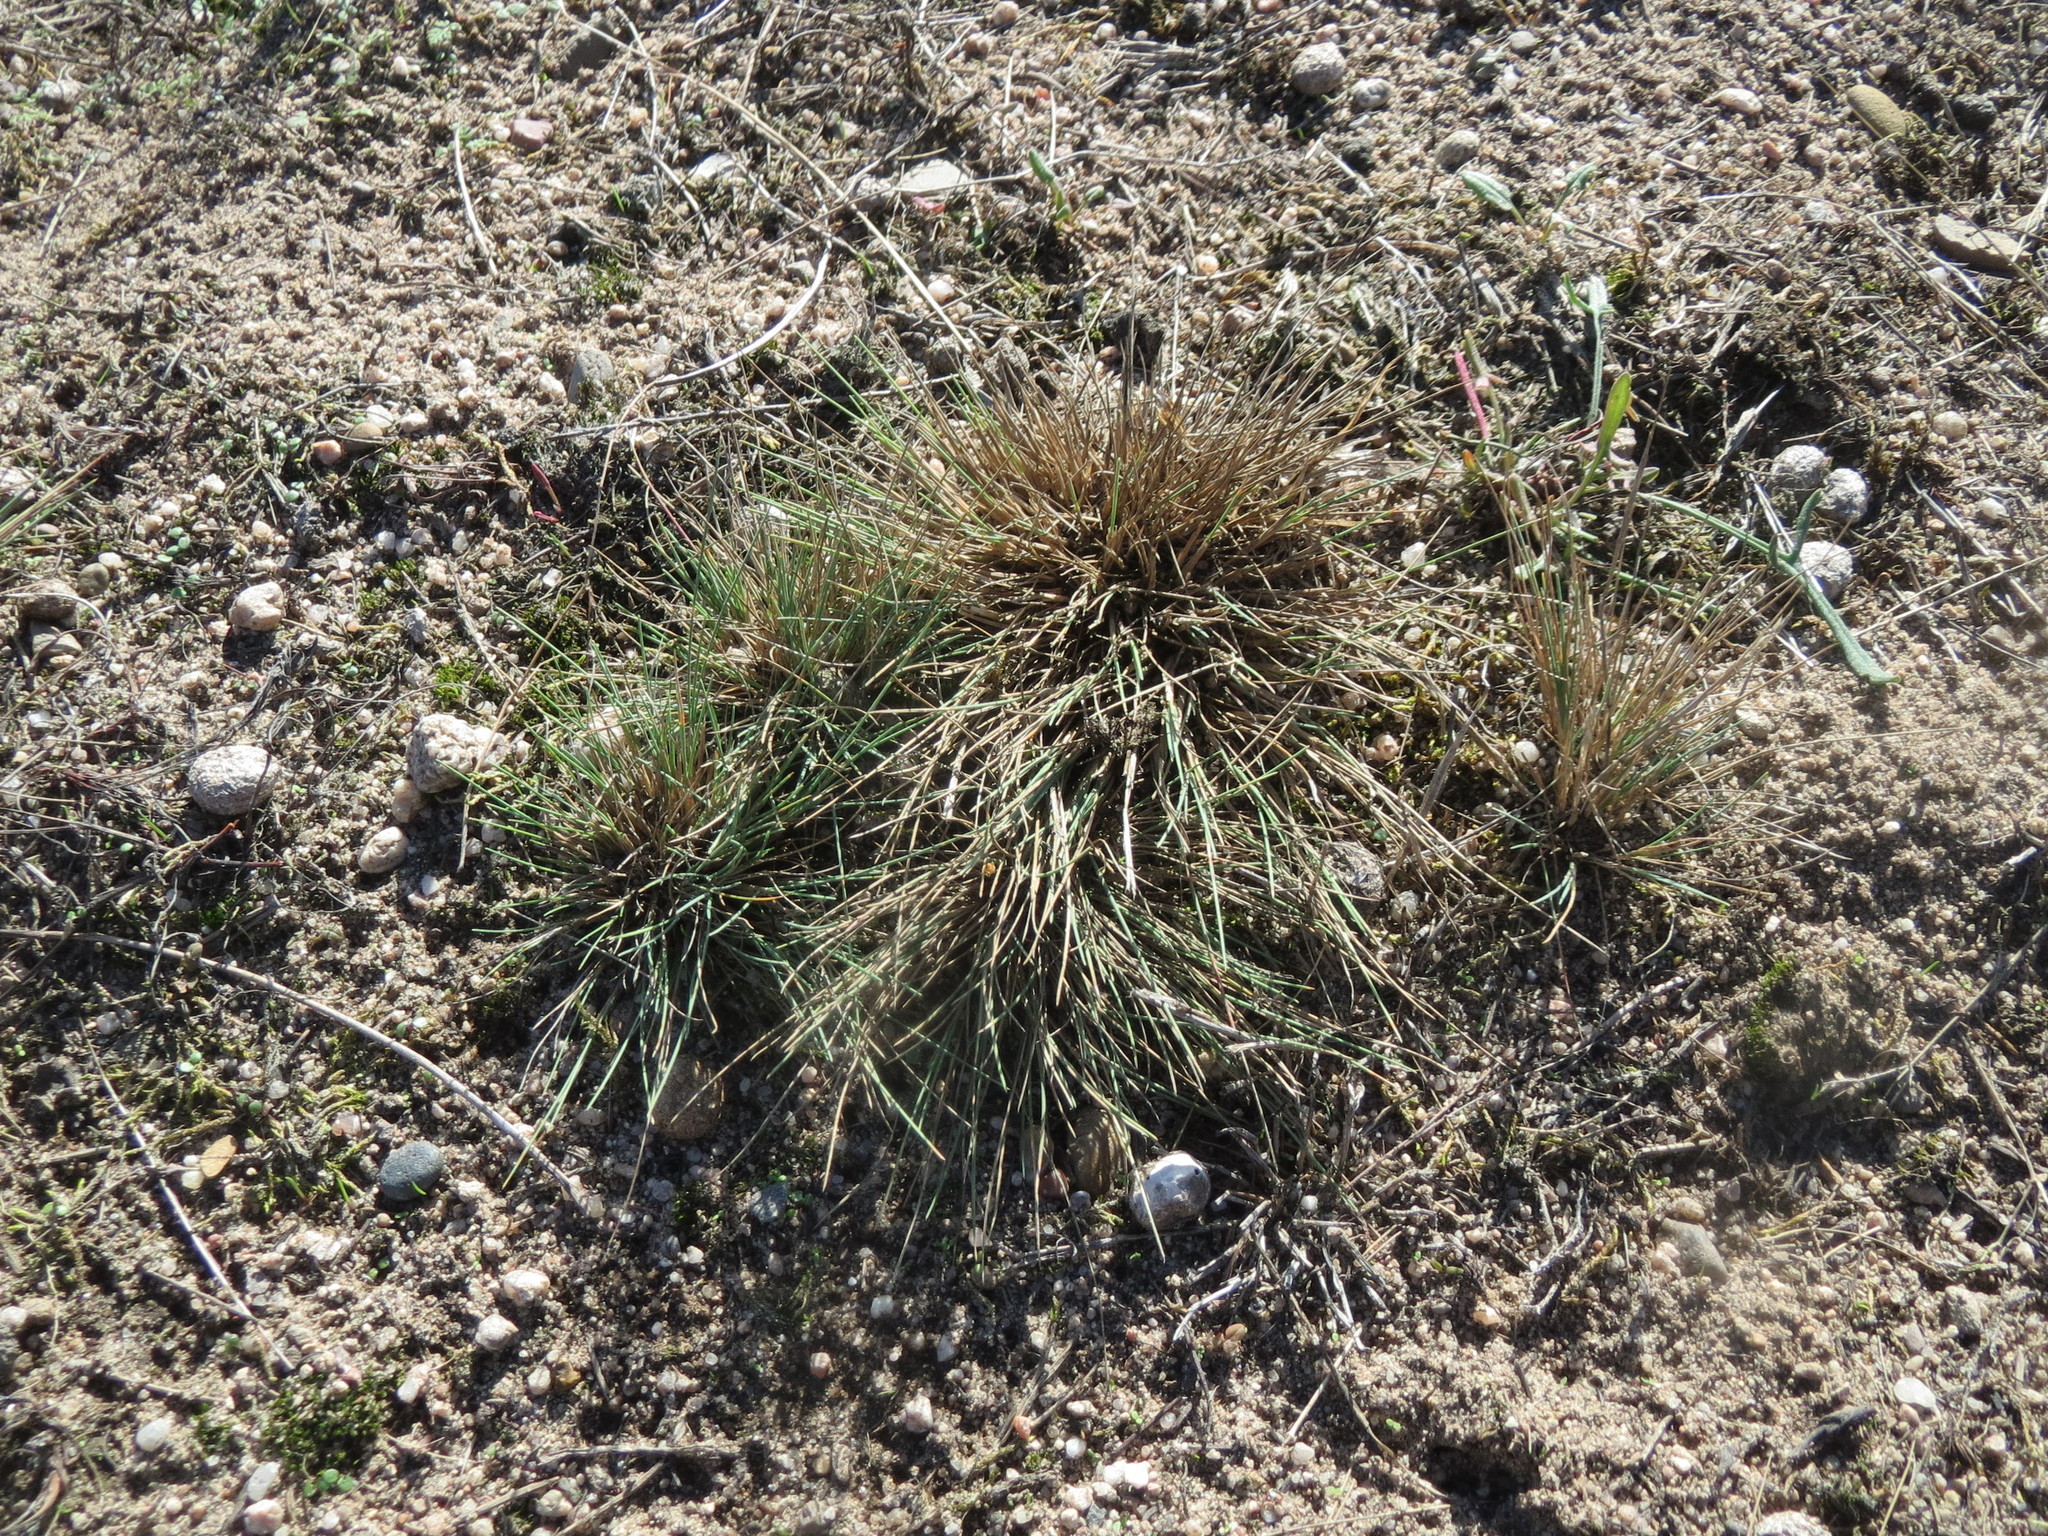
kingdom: Plantae
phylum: Tracheophyta
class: Liliopsida
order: Poales
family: Poaceae
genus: Corynephorus
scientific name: Corynephorus canescens
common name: Grey hair-grass
